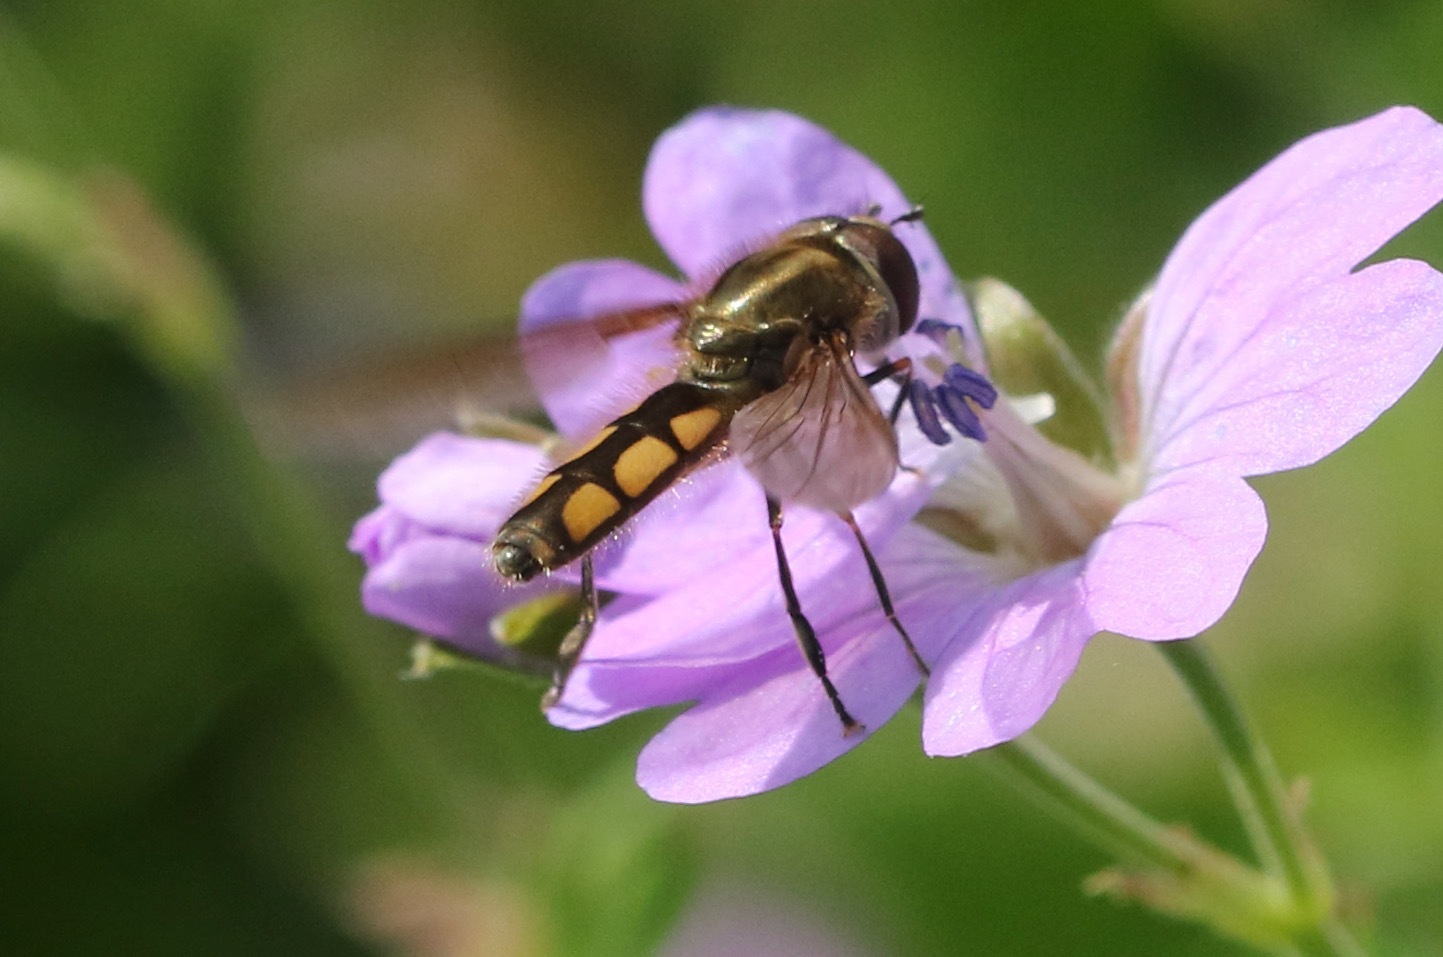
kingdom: Animalia
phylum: Arthropoda
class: Insecta
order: Diptera
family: Syrphidae
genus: Platycheirus
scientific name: Platycheirus manicatus
